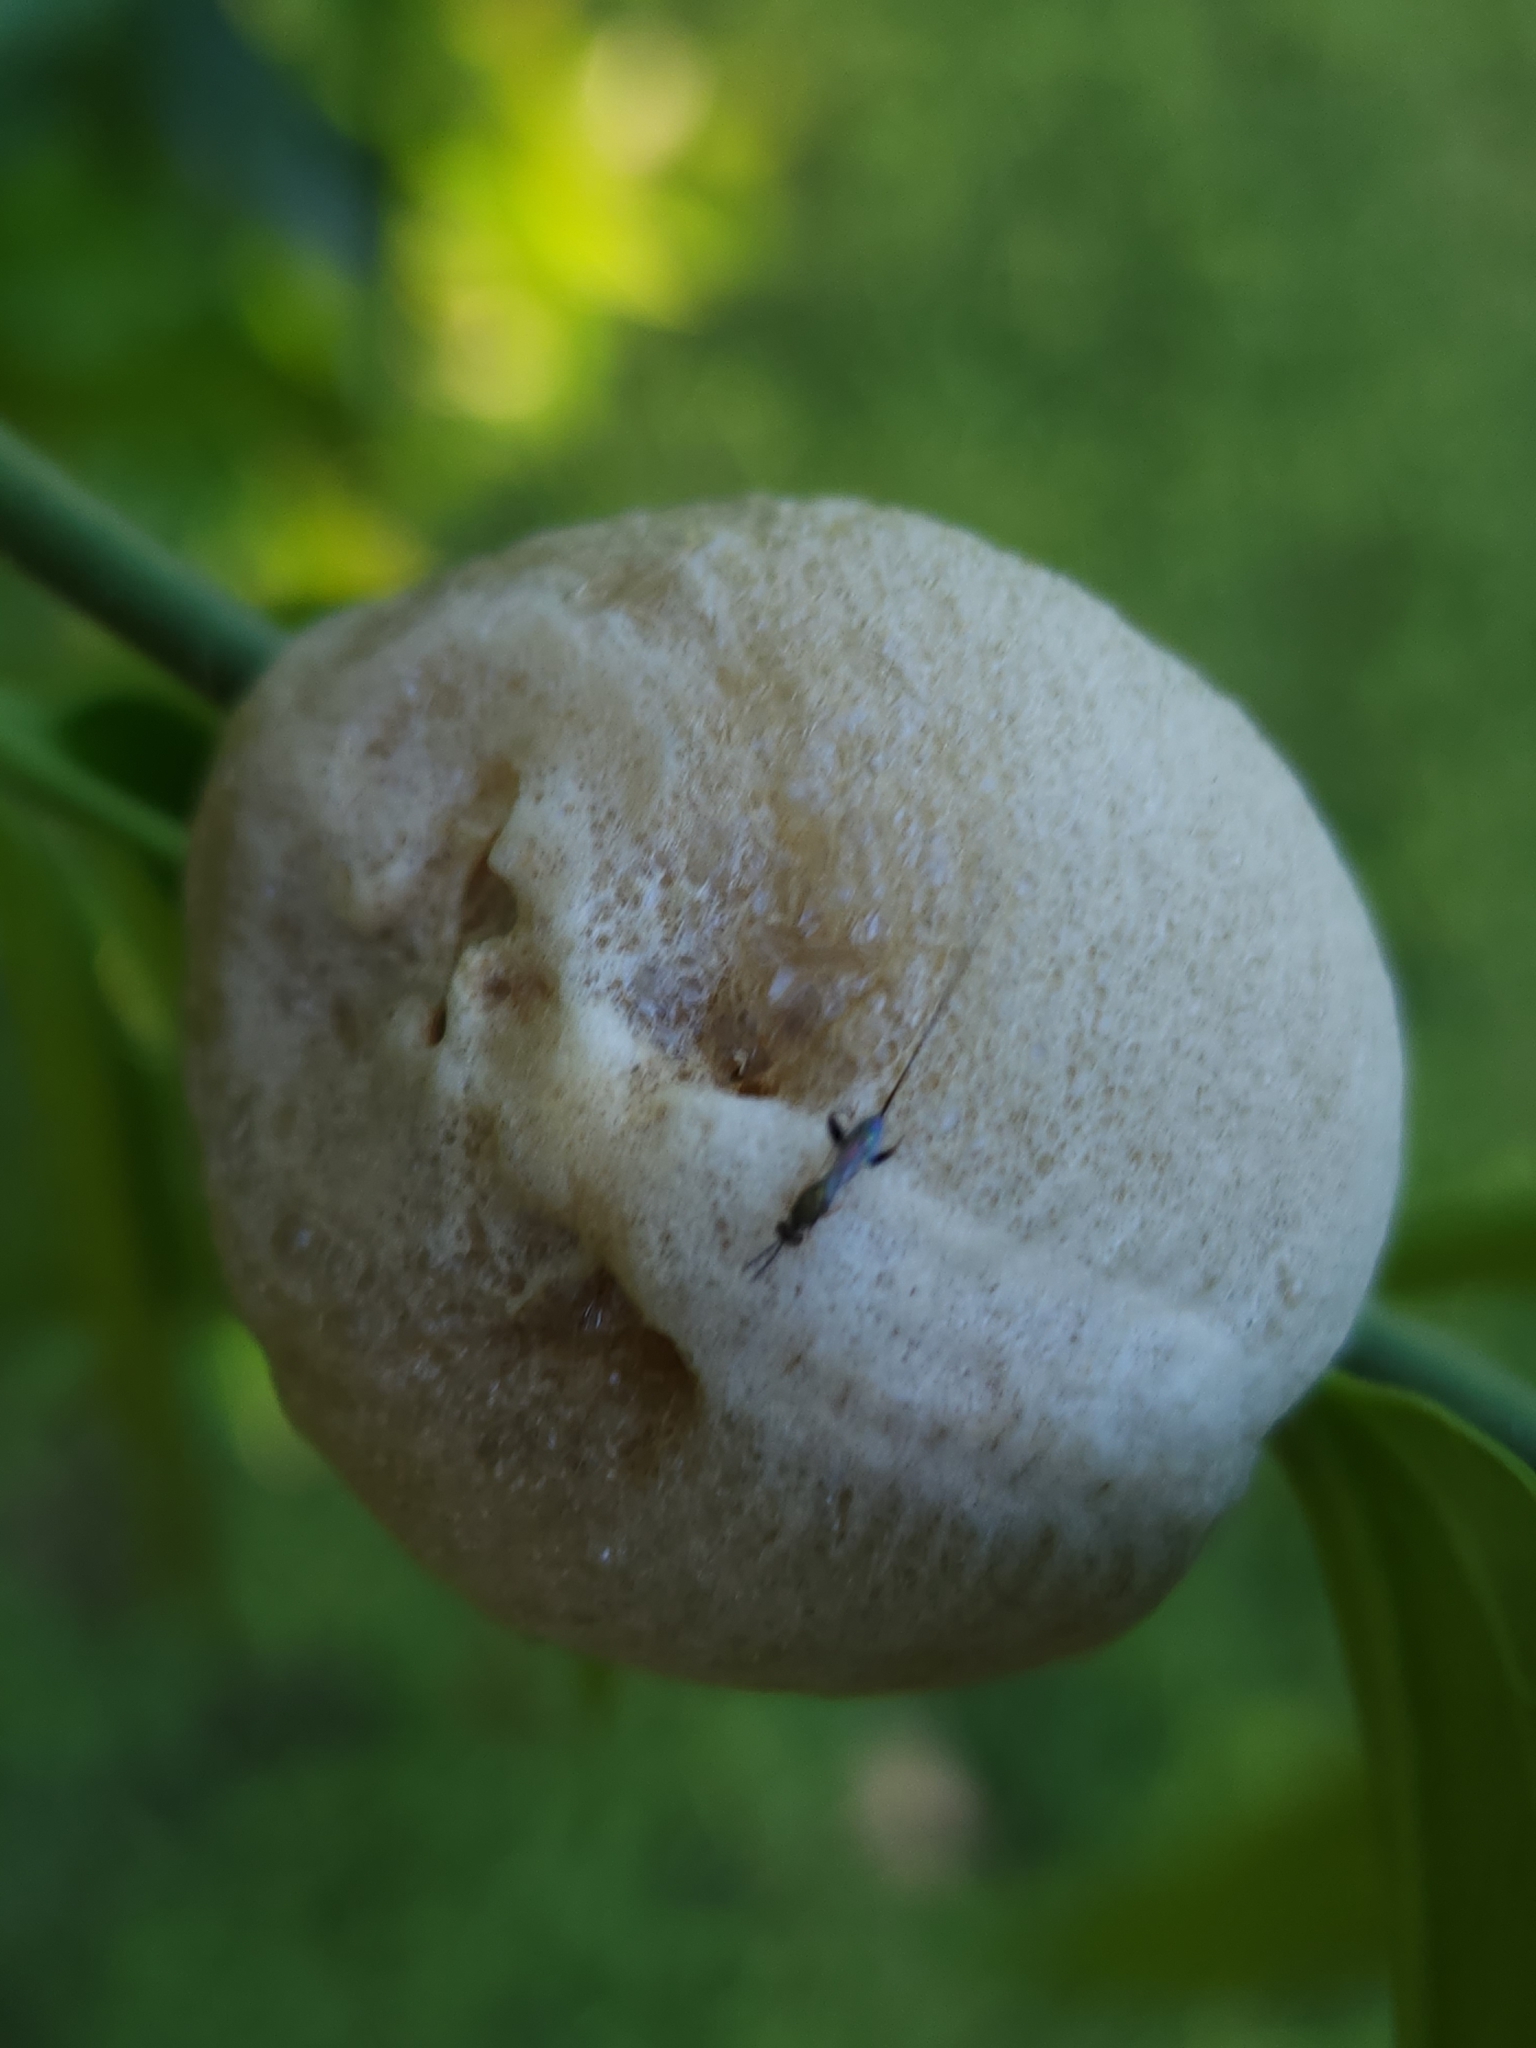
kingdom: Animalia
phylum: Arthropoda
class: Insecta
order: Mantodea
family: Mantidae
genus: Archimantis
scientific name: Archimantis latistyla
